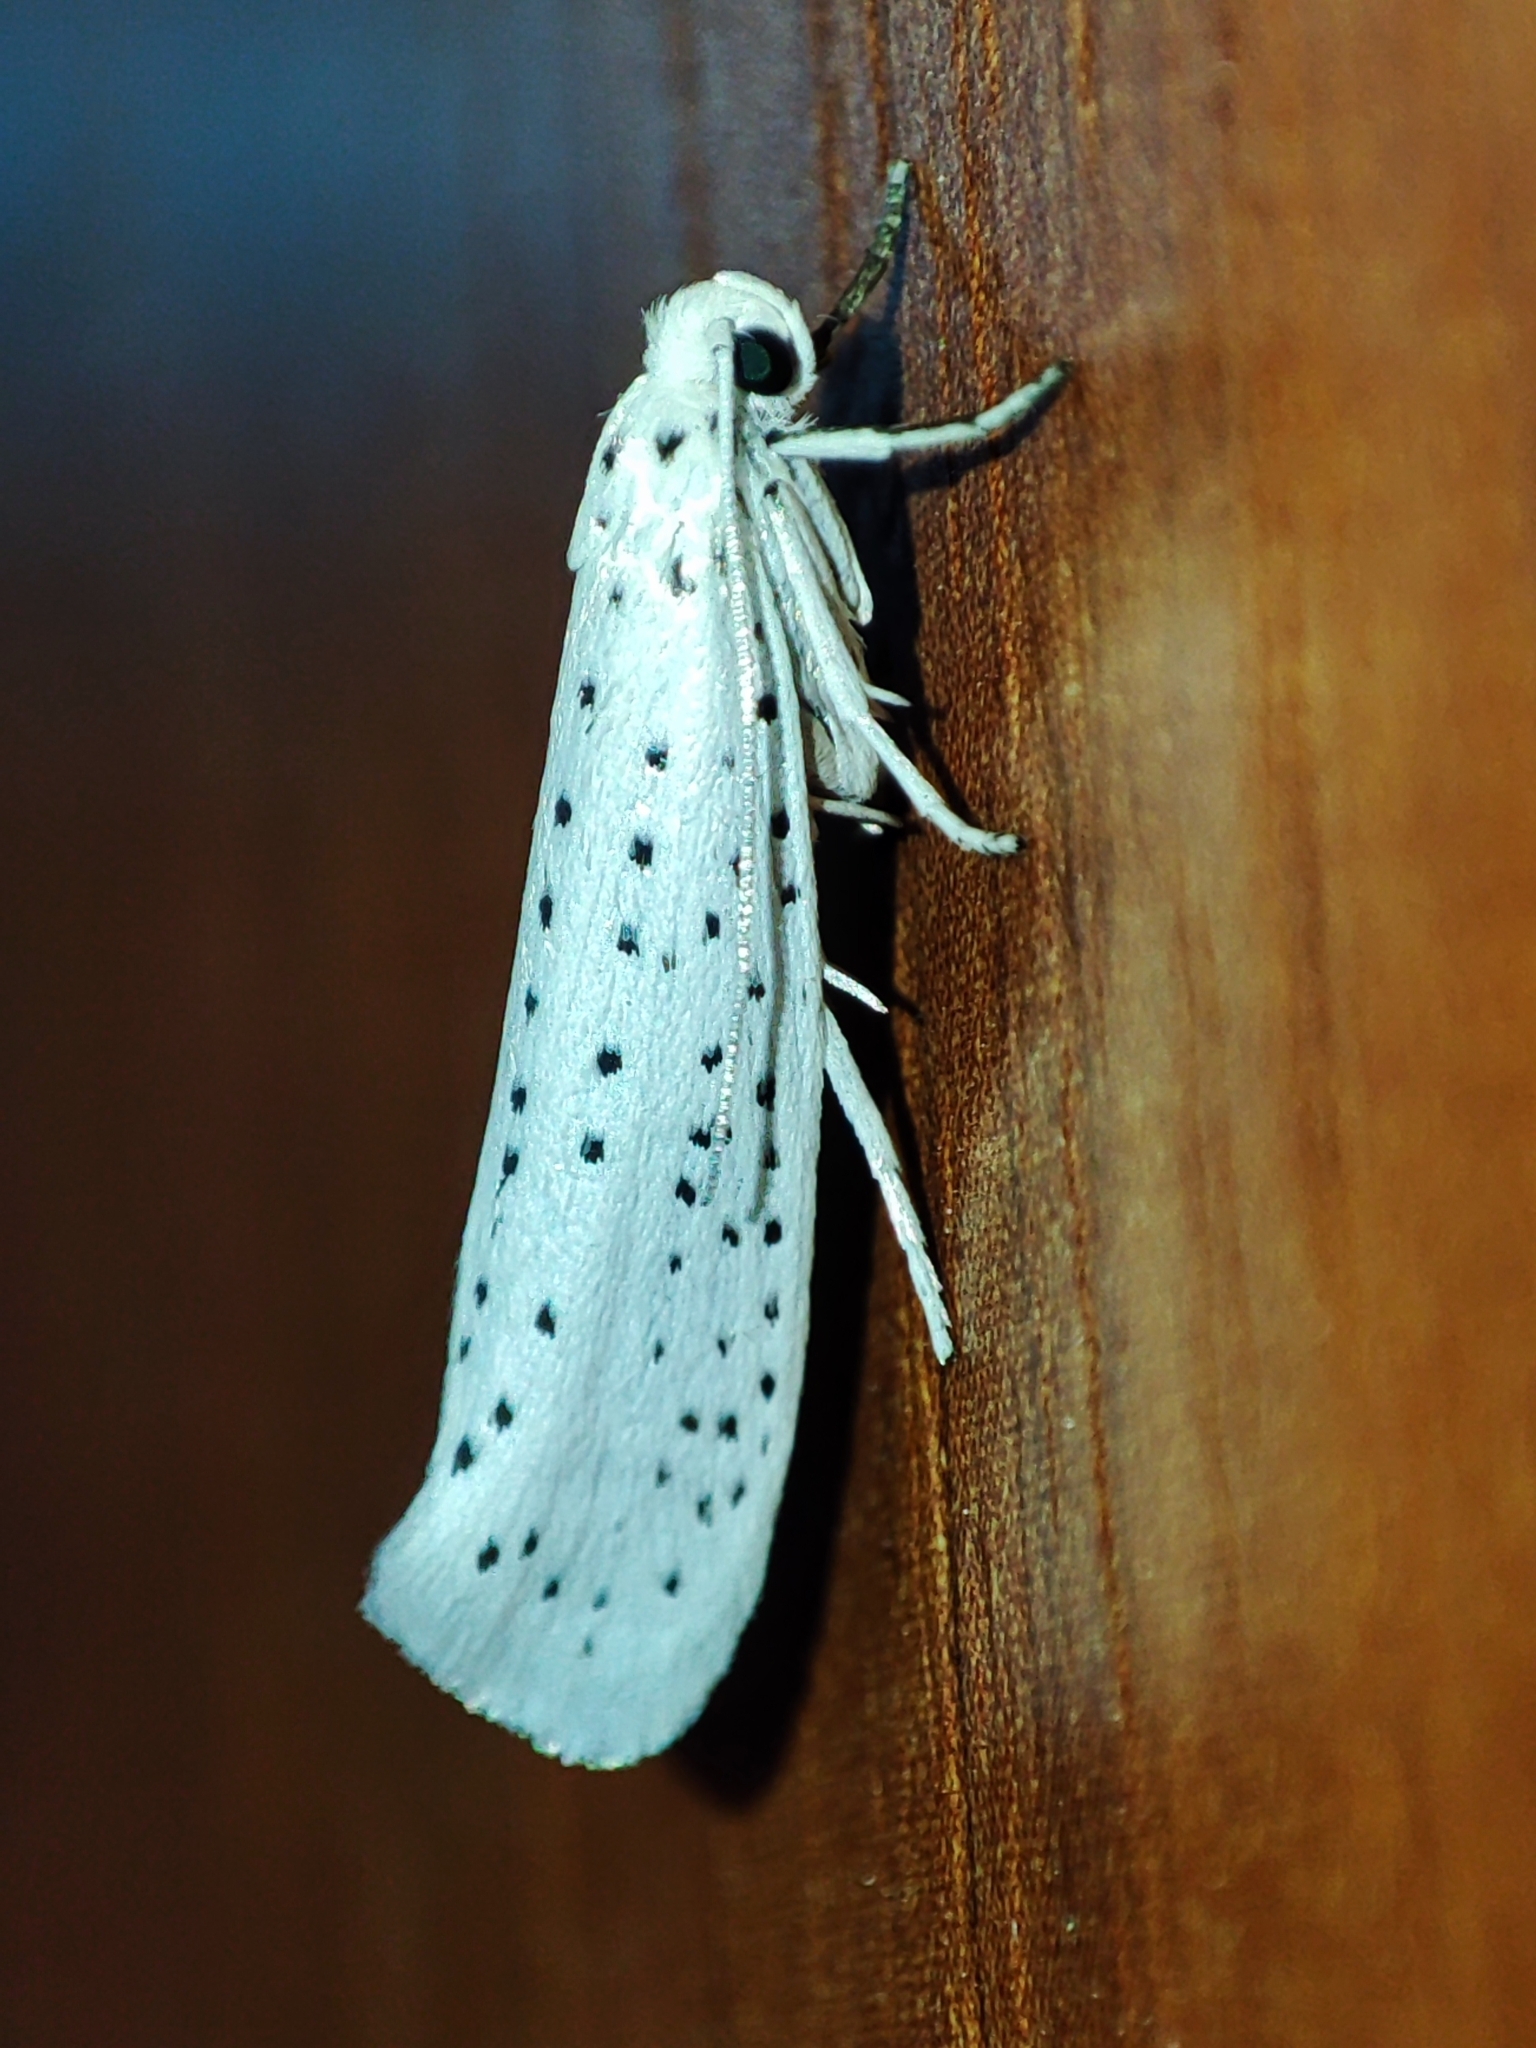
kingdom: Animalia
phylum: Arthropoda
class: Insecta
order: Lepidoptera
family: Yponomeutidae
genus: Yponomeuta
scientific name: Yponomeuta evonymella
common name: Bird-cherry ermine
